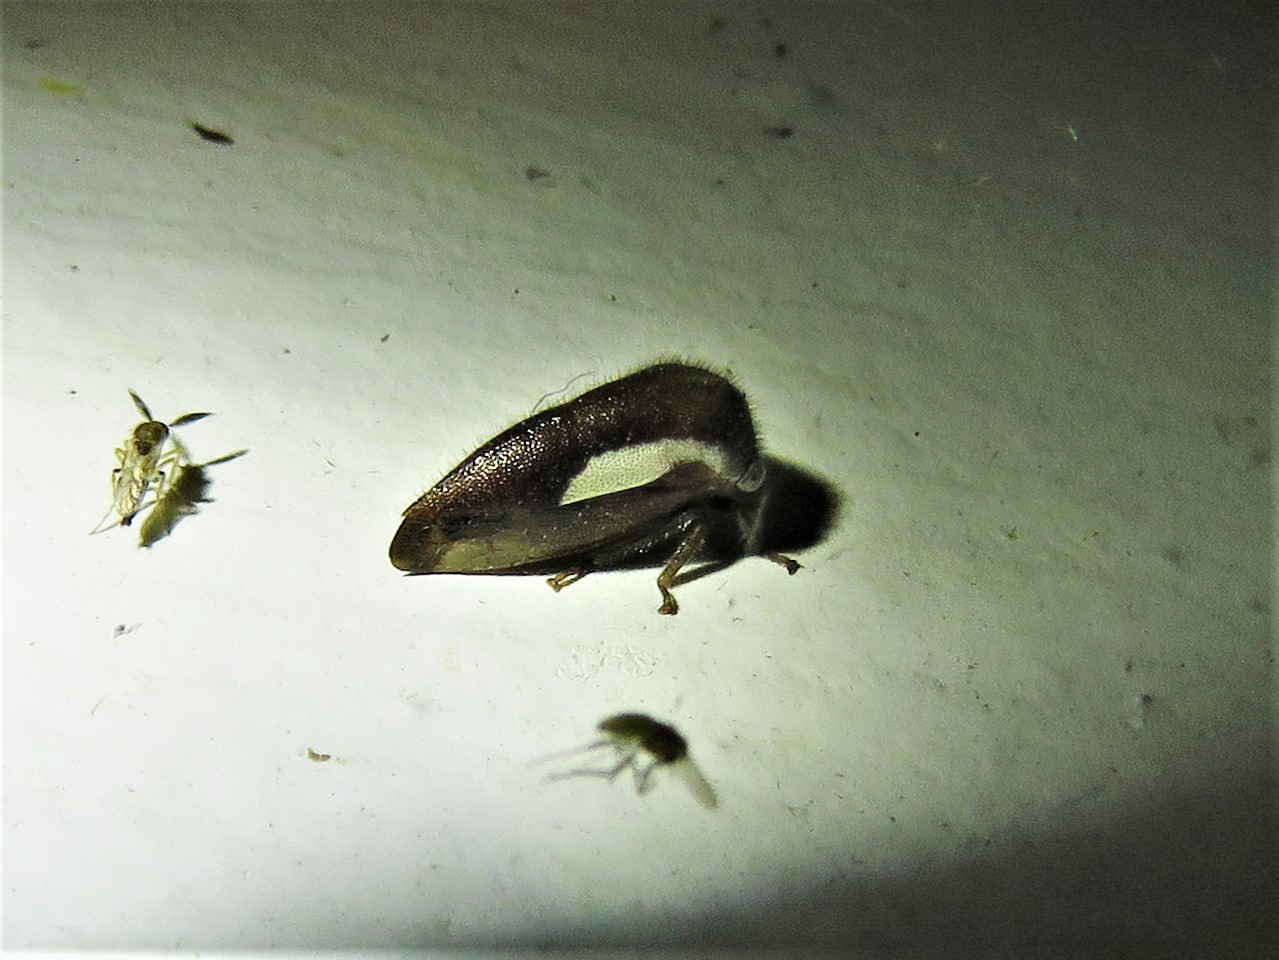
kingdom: Animalia
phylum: Arthropoda
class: Insecta
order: Hemiptera
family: Membracidae
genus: Ophiderma
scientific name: Ophiderma flavicephala
